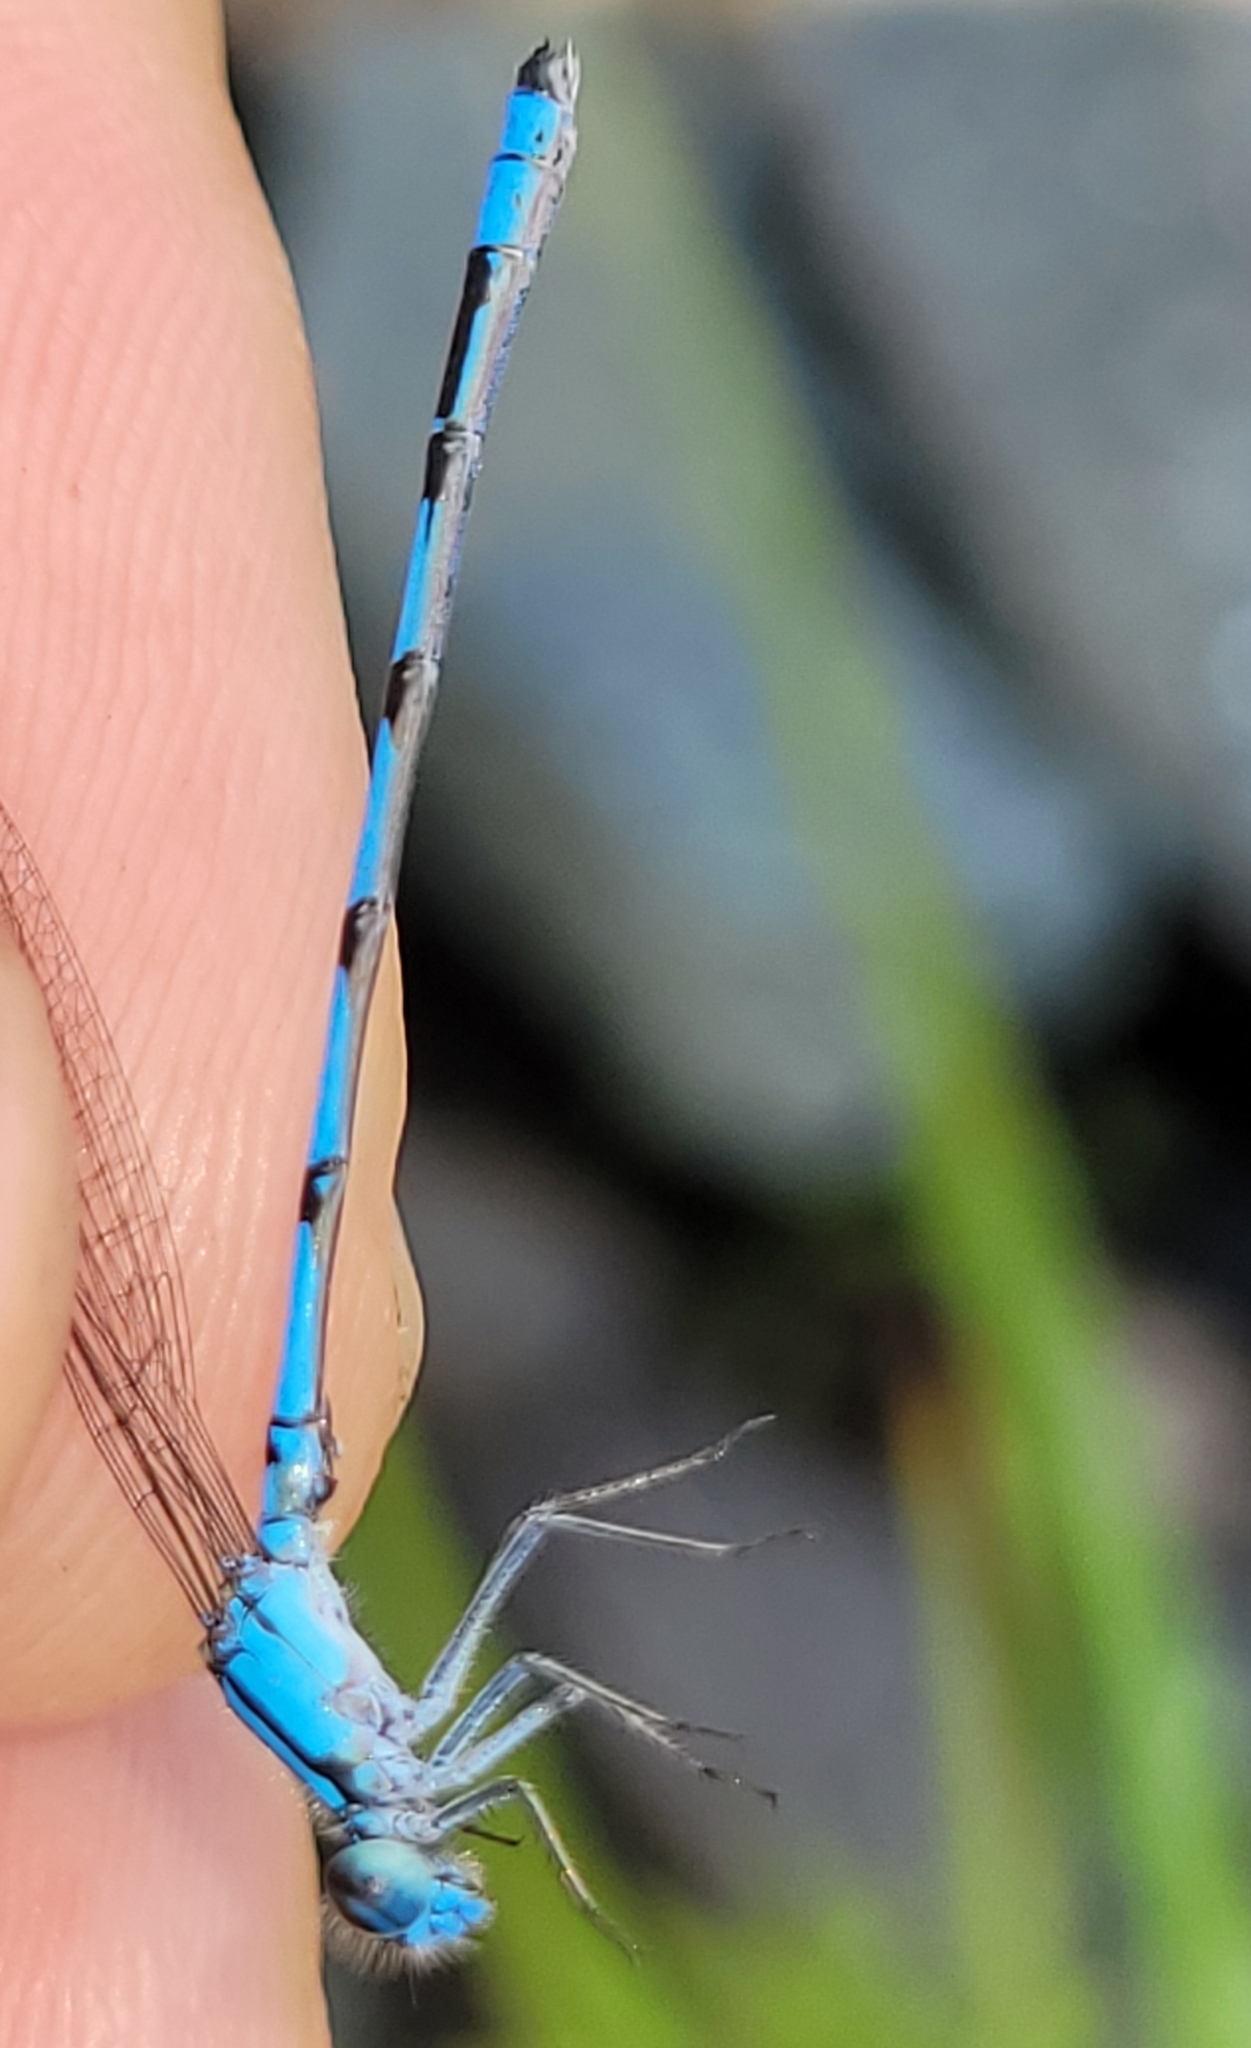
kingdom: Animalia
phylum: Arthropoda
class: Insecta
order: Odonata
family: Coenagrionidae
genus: Enallagma
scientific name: Enallagma hageni
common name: Hagen's bluet
